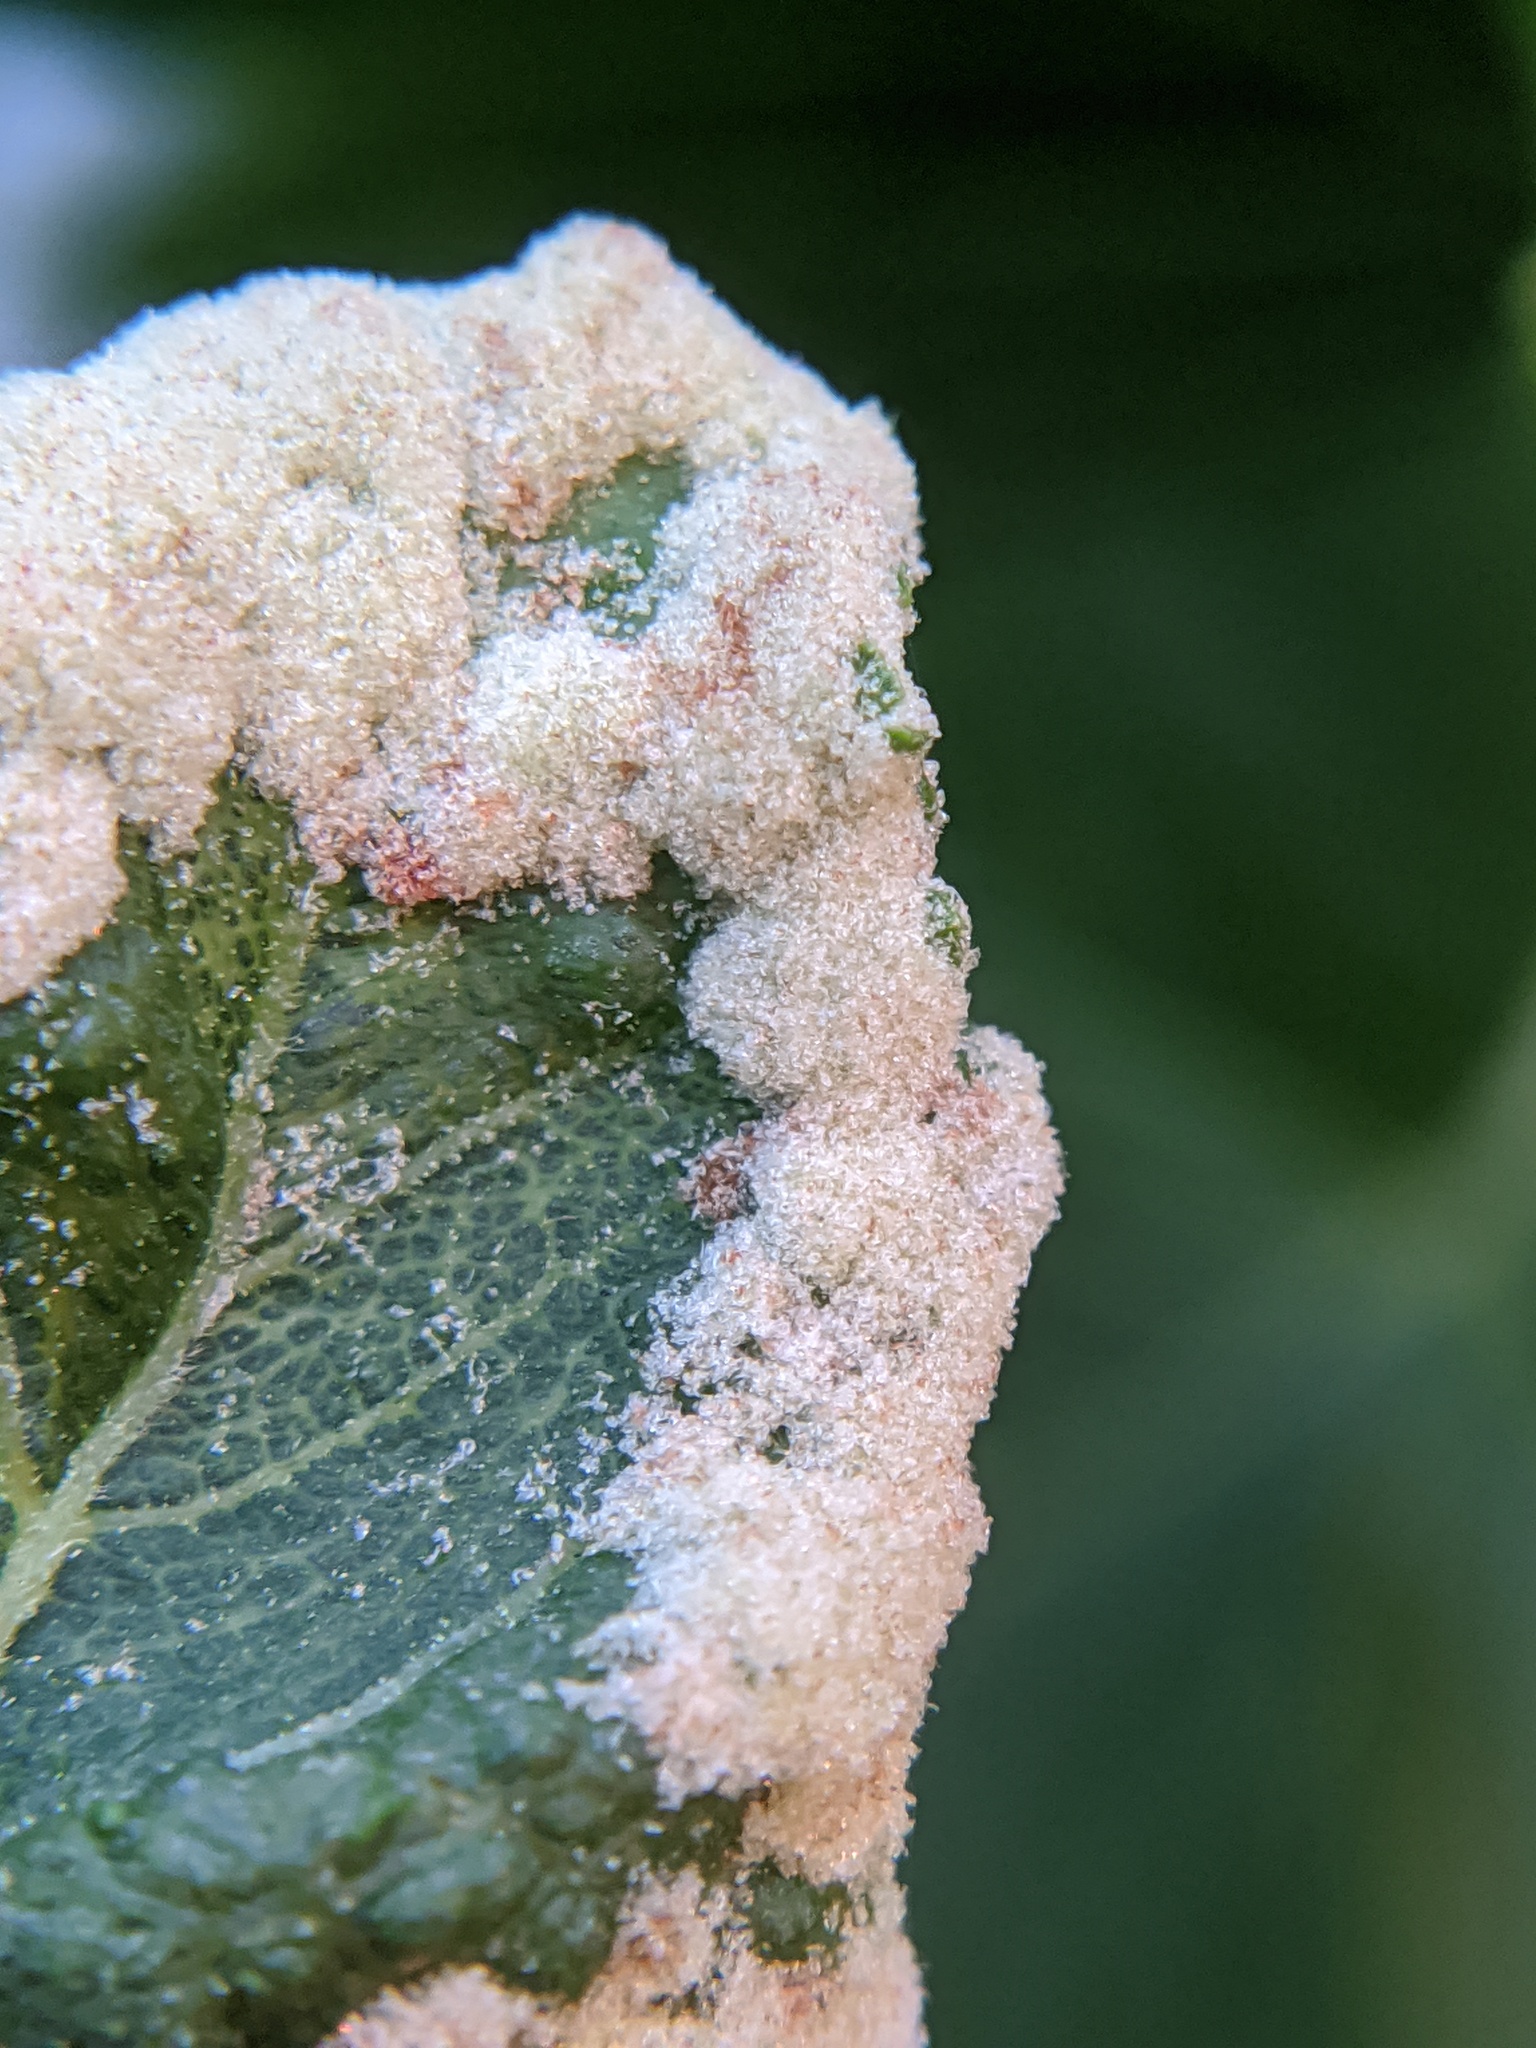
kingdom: Animalia
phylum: Arthropoda
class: Arachnida
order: Trombidiformes
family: Eriophyidae
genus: Aceria
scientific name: Aceria
